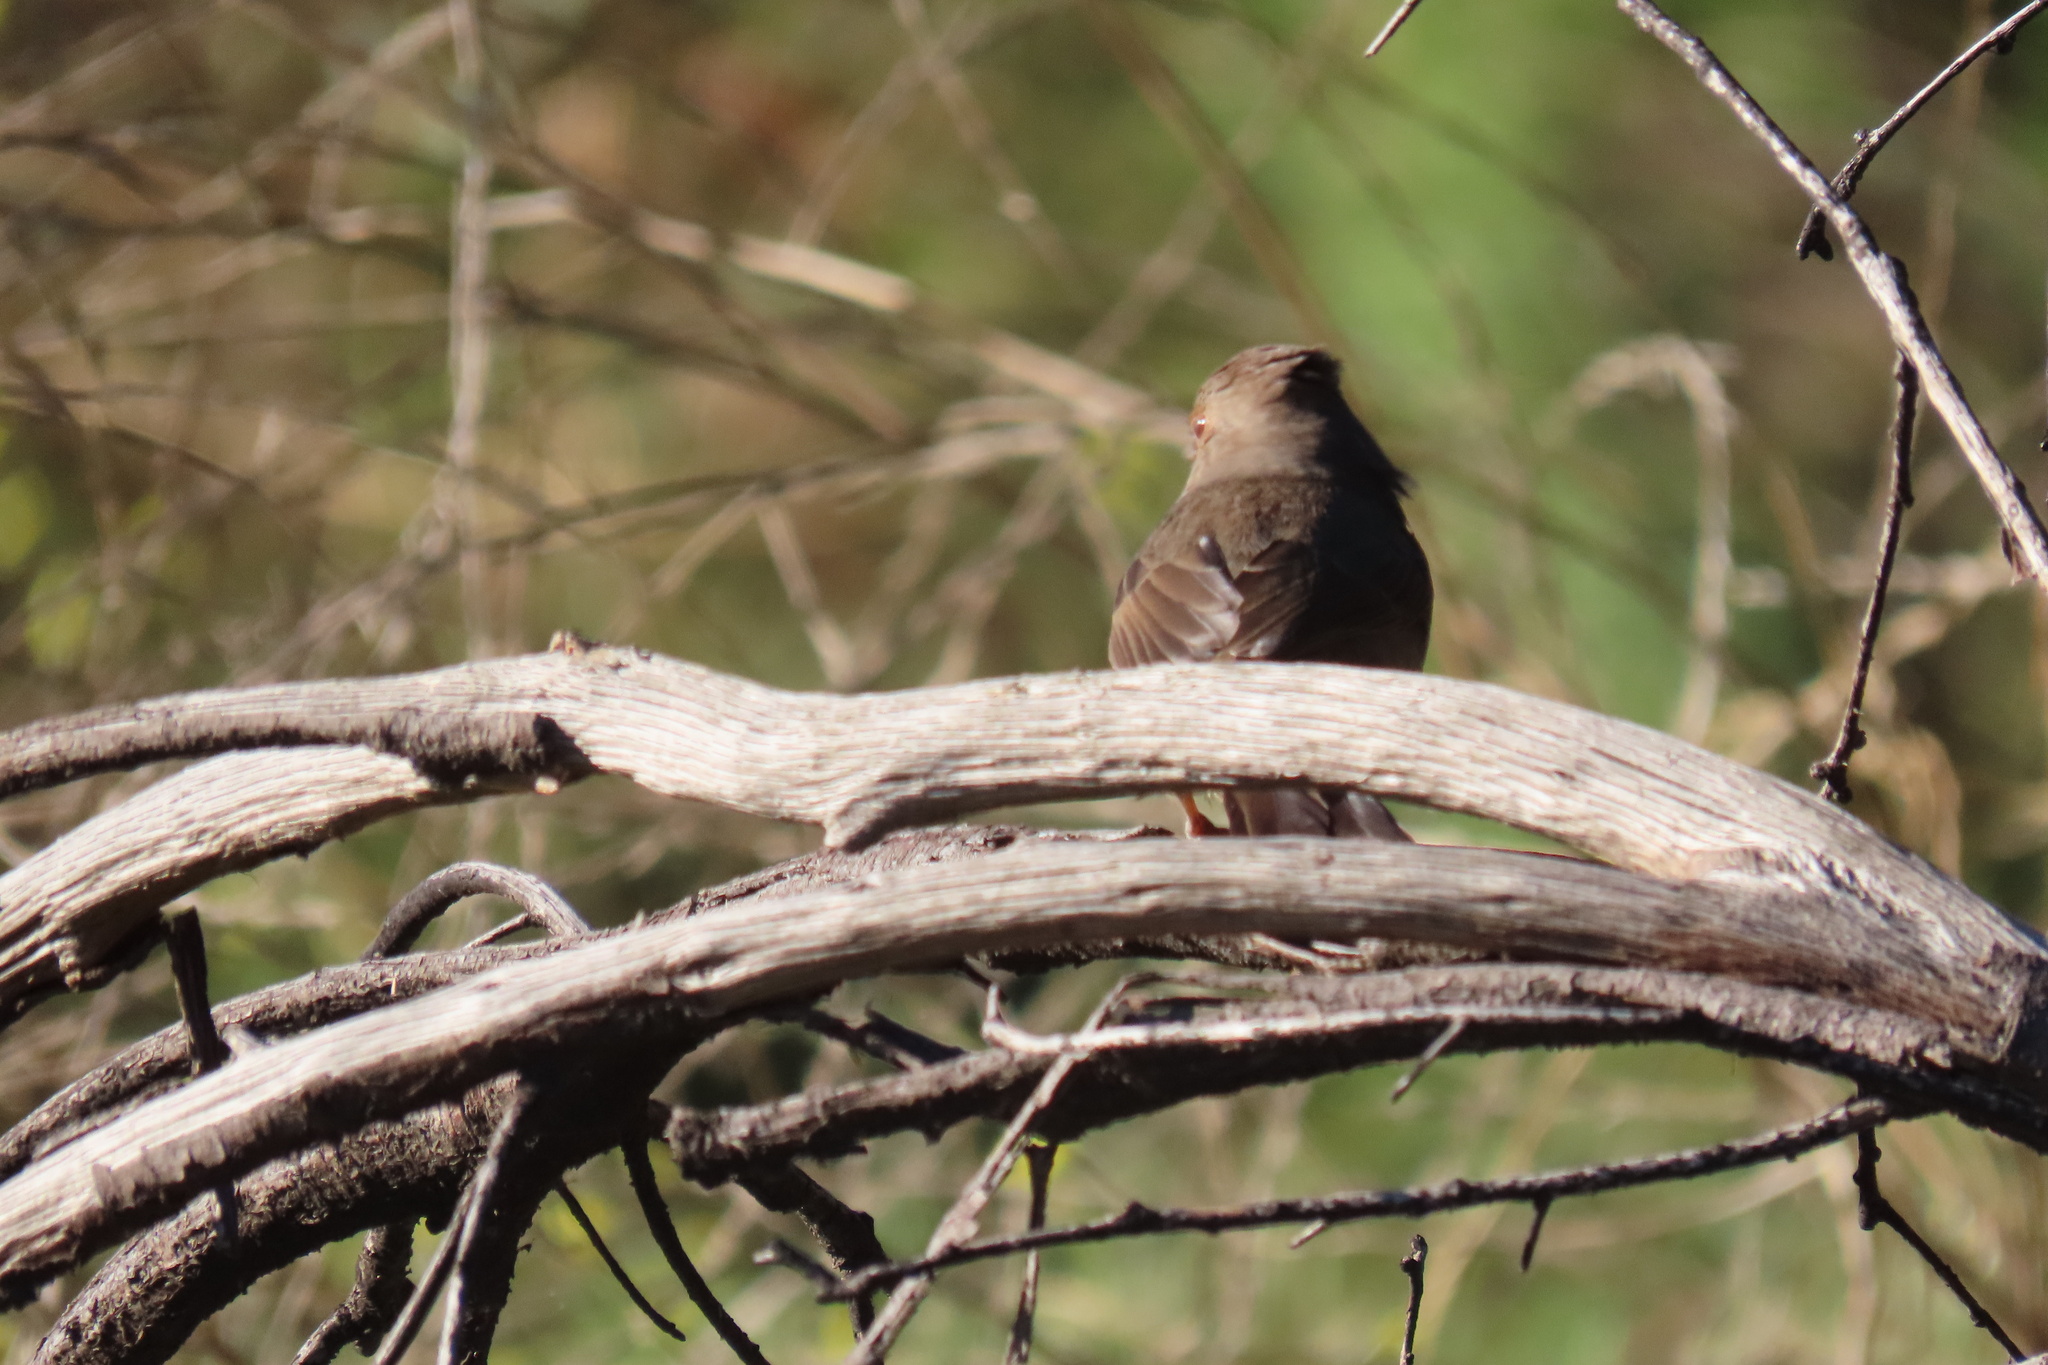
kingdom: Animalia
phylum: Chordata
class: Aves
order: Passeriformes
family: Passerellidae
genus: Melozone
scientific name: Melozone crissalis
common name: California towhee
